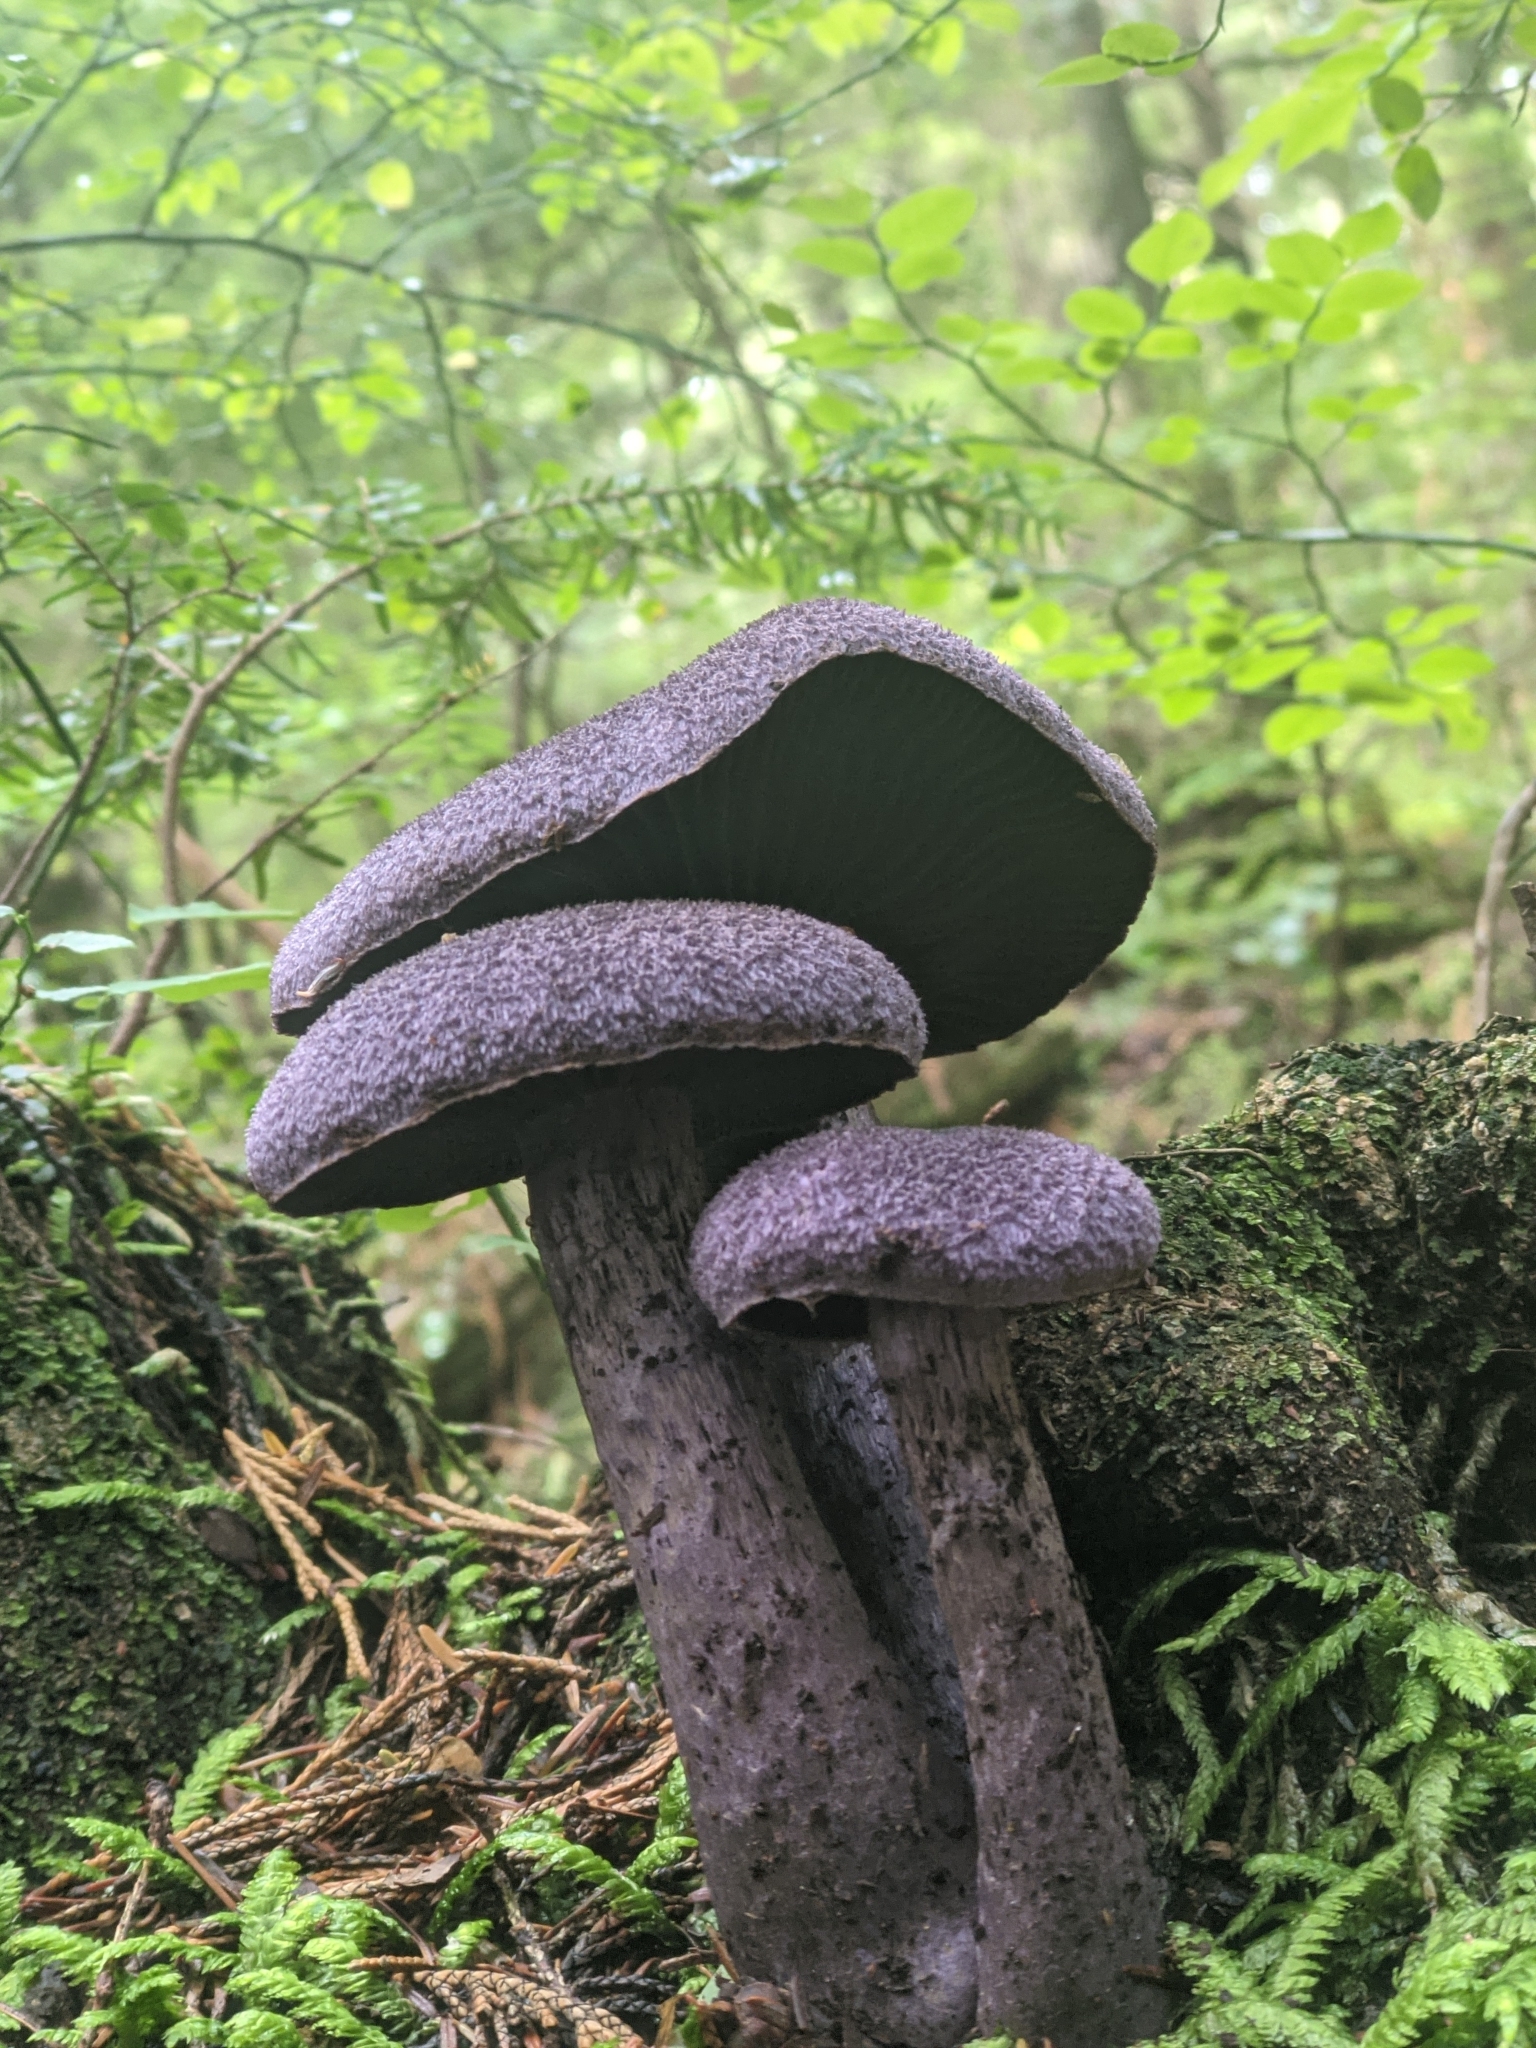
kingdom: Fungi
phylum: Basidiomycota
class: Agaricomycetes
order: Agaricales
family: Cortinariaceae
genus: Cortinarius
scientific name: Cortinarius violaceus
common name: Violet webcap
